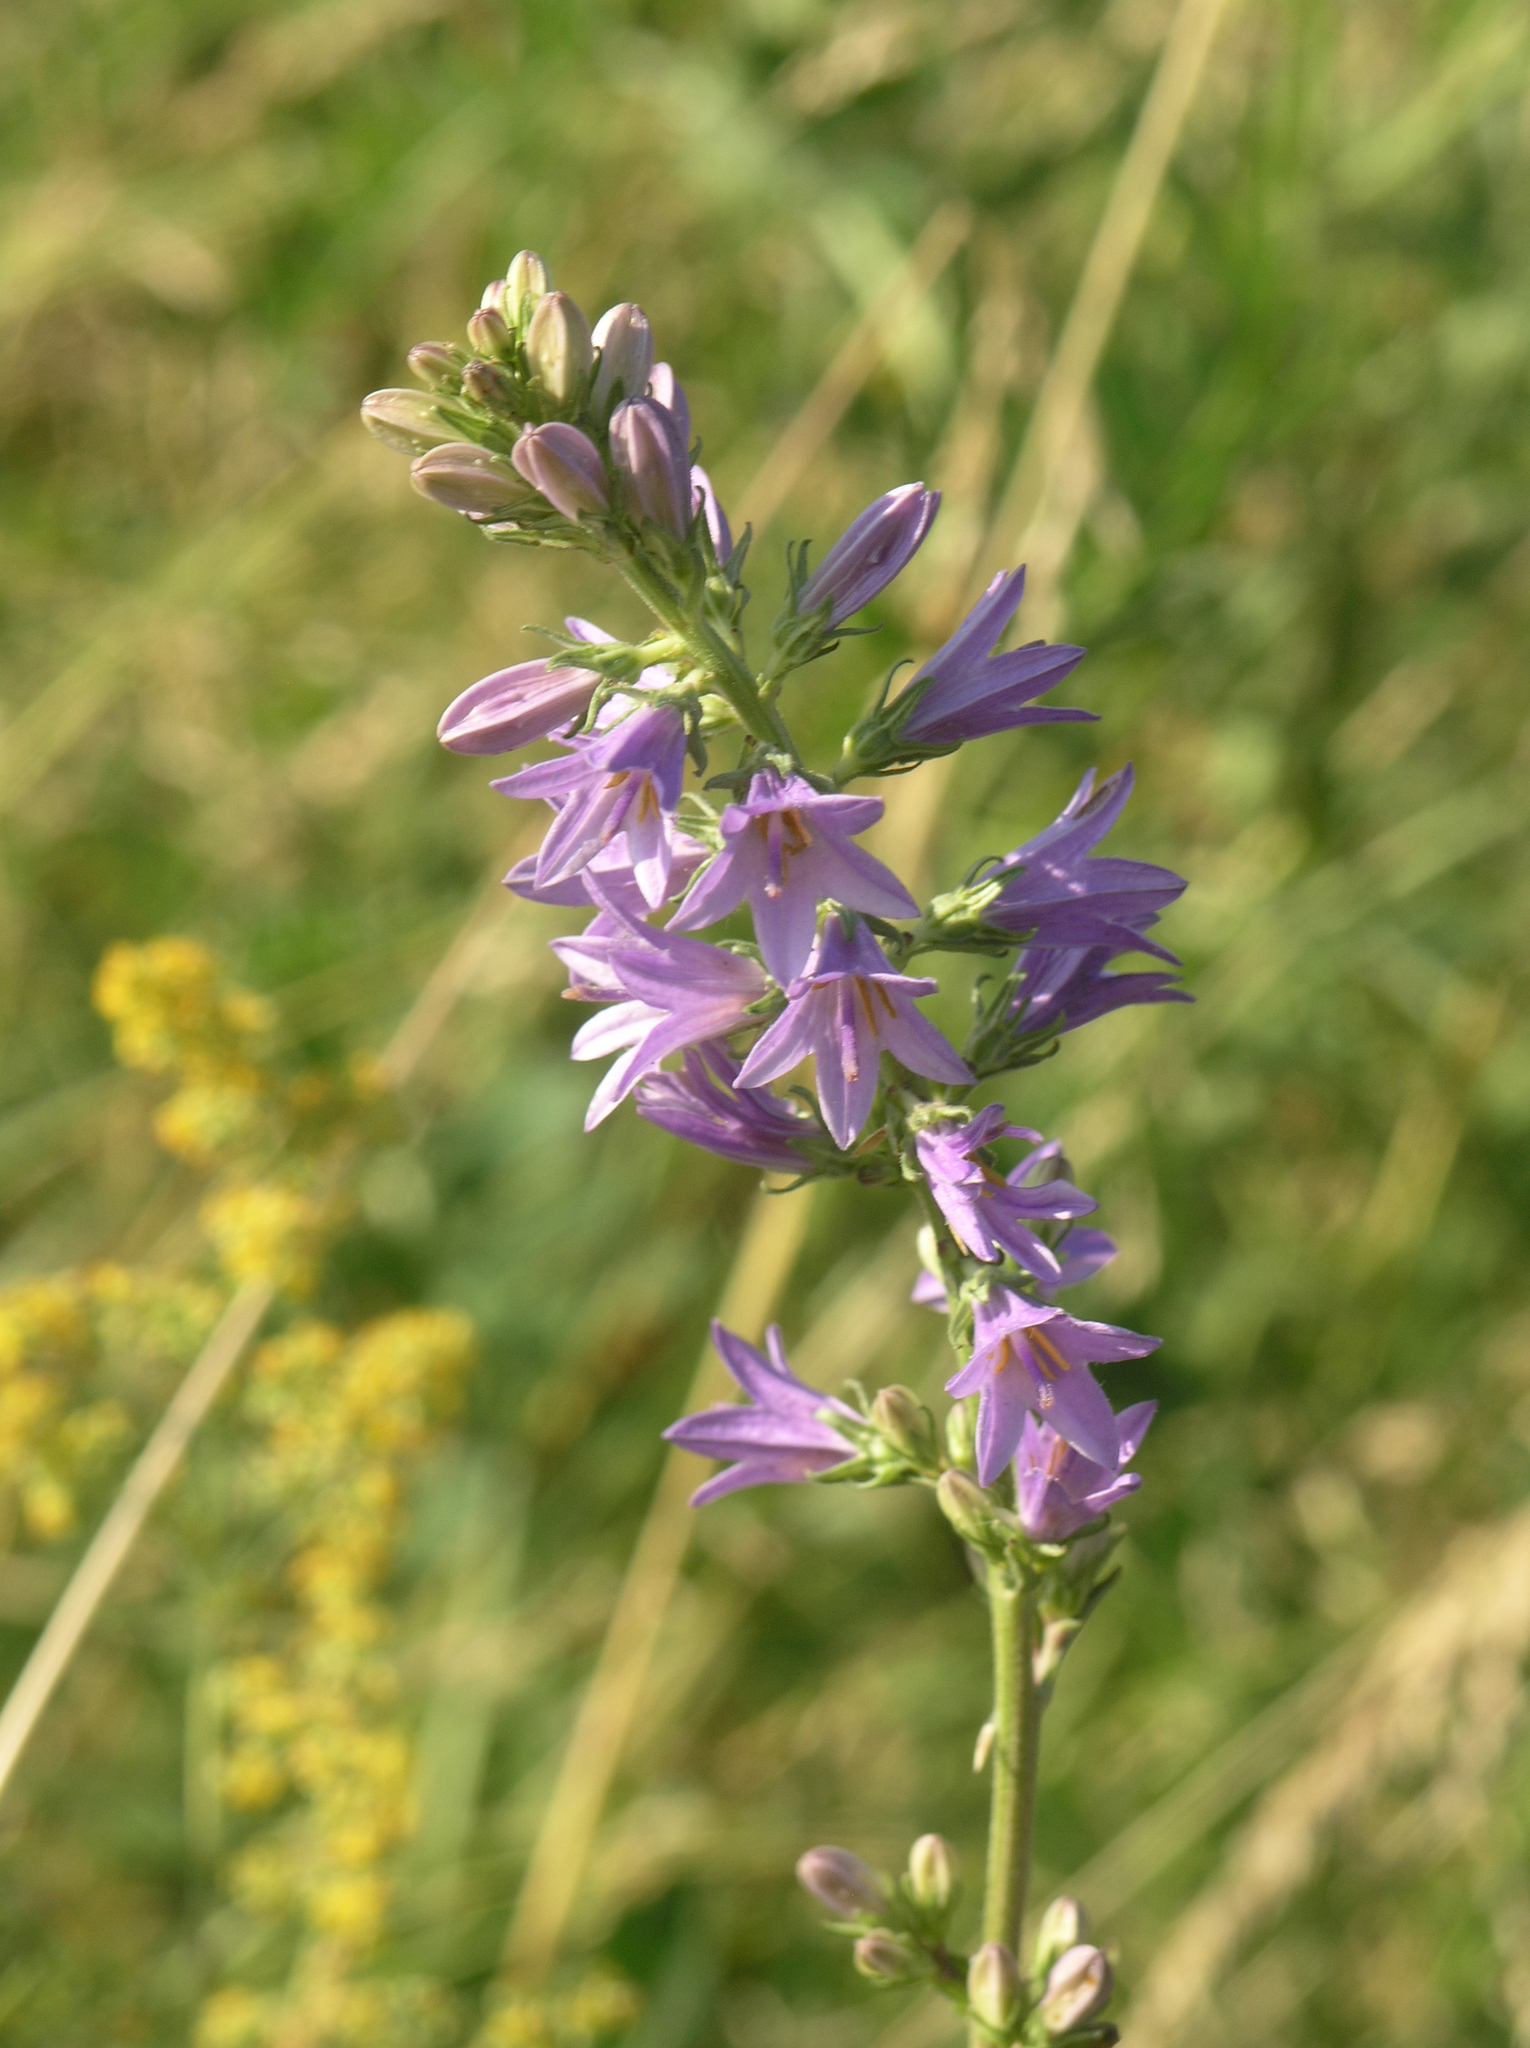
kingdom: Plantae
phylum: Tracheophyta
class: Magnoliopsida
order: Asterales
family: Campanulaceae
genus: Campanula
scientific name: Campanula bononiensis
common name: Pale bellflower
